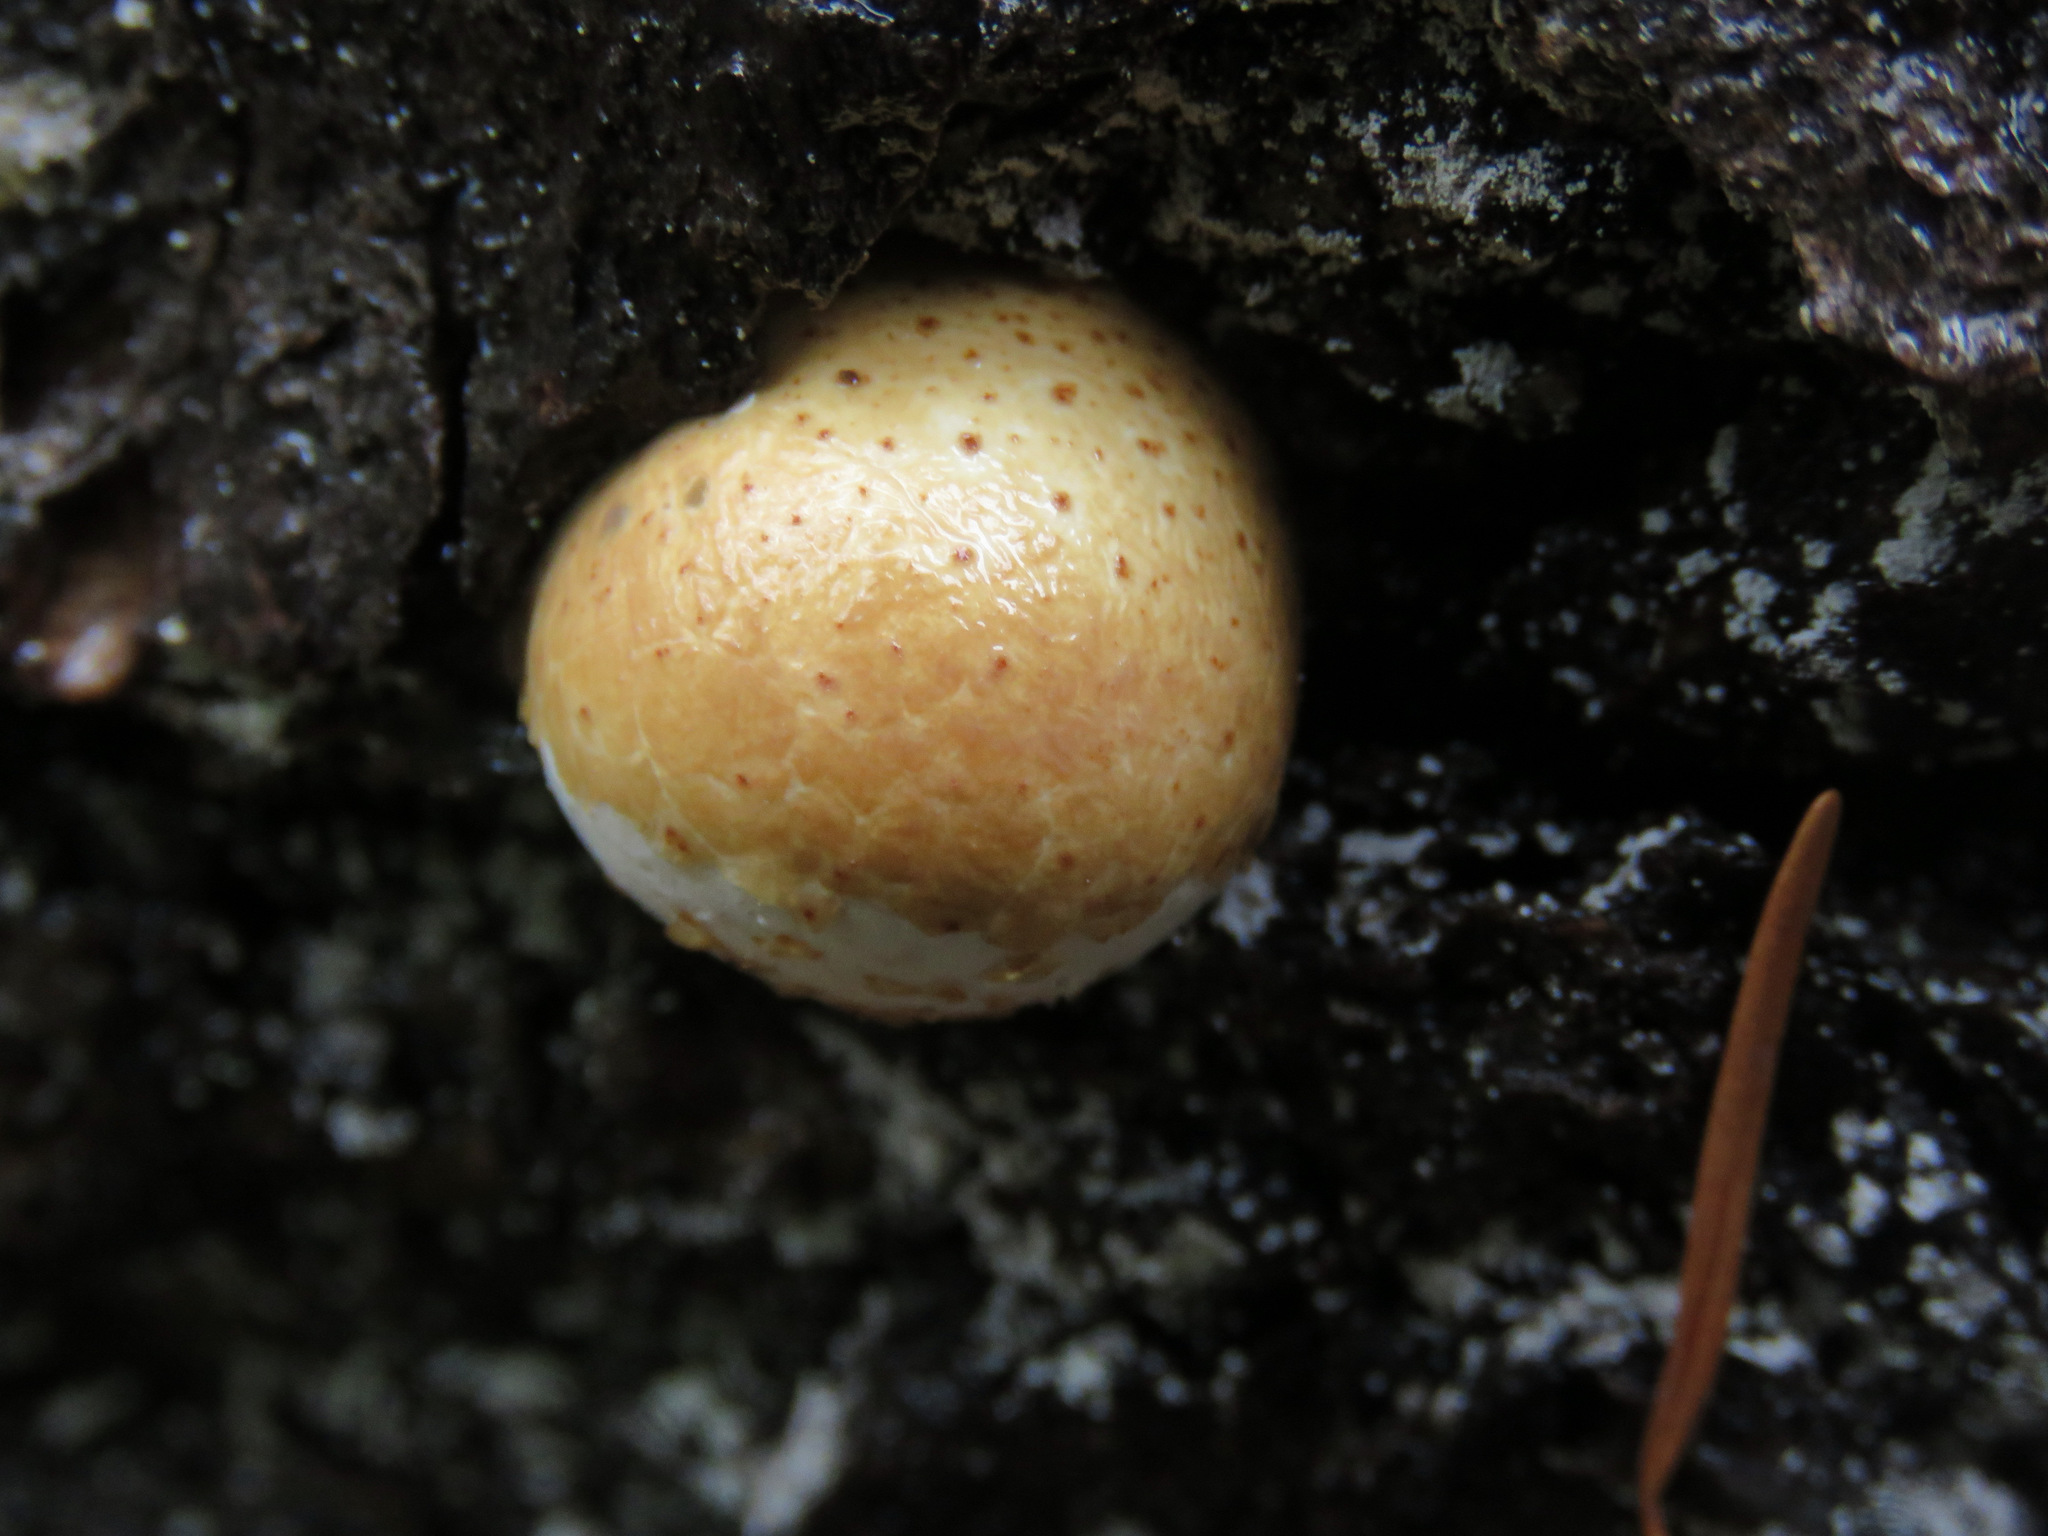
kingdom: Fungi
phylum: Basidiomycota
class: Agaricomycetes
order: Polyporales
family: Polyporaceae
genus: Cryptoporus
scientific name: Cryptoporus volvatus
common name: Veiled polypore
